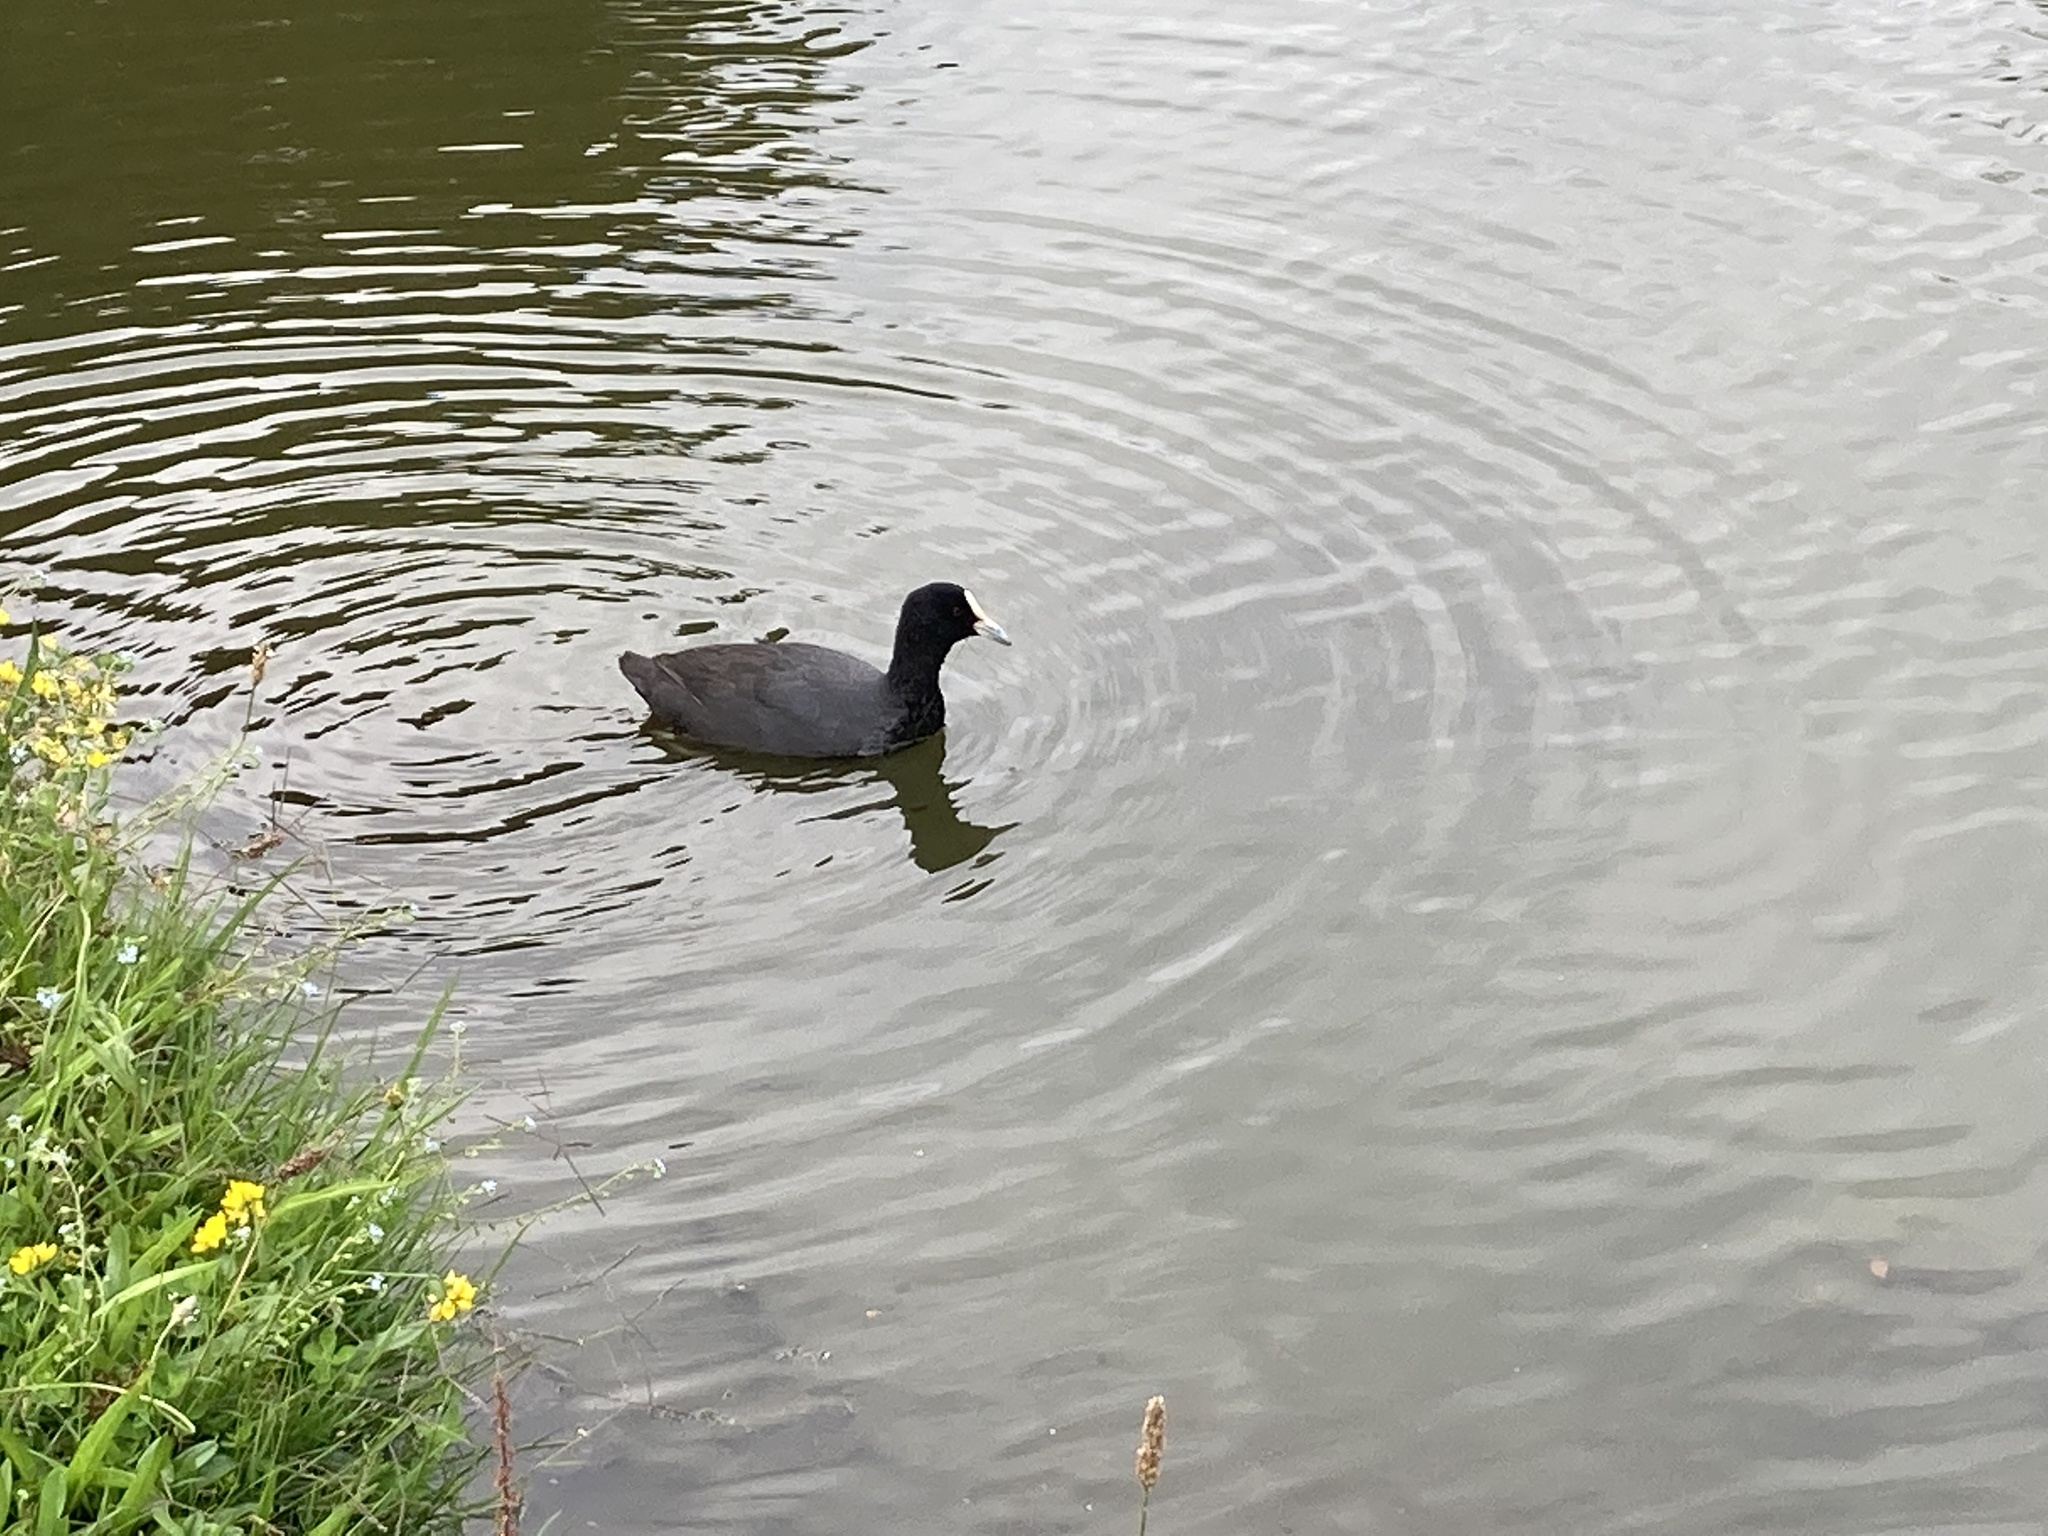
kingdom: Animalia
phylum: Chordata
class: Aves
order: Gruiformes
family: Rallidae
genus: Fulica
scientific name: Fulica atra
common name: Eurasian coot
